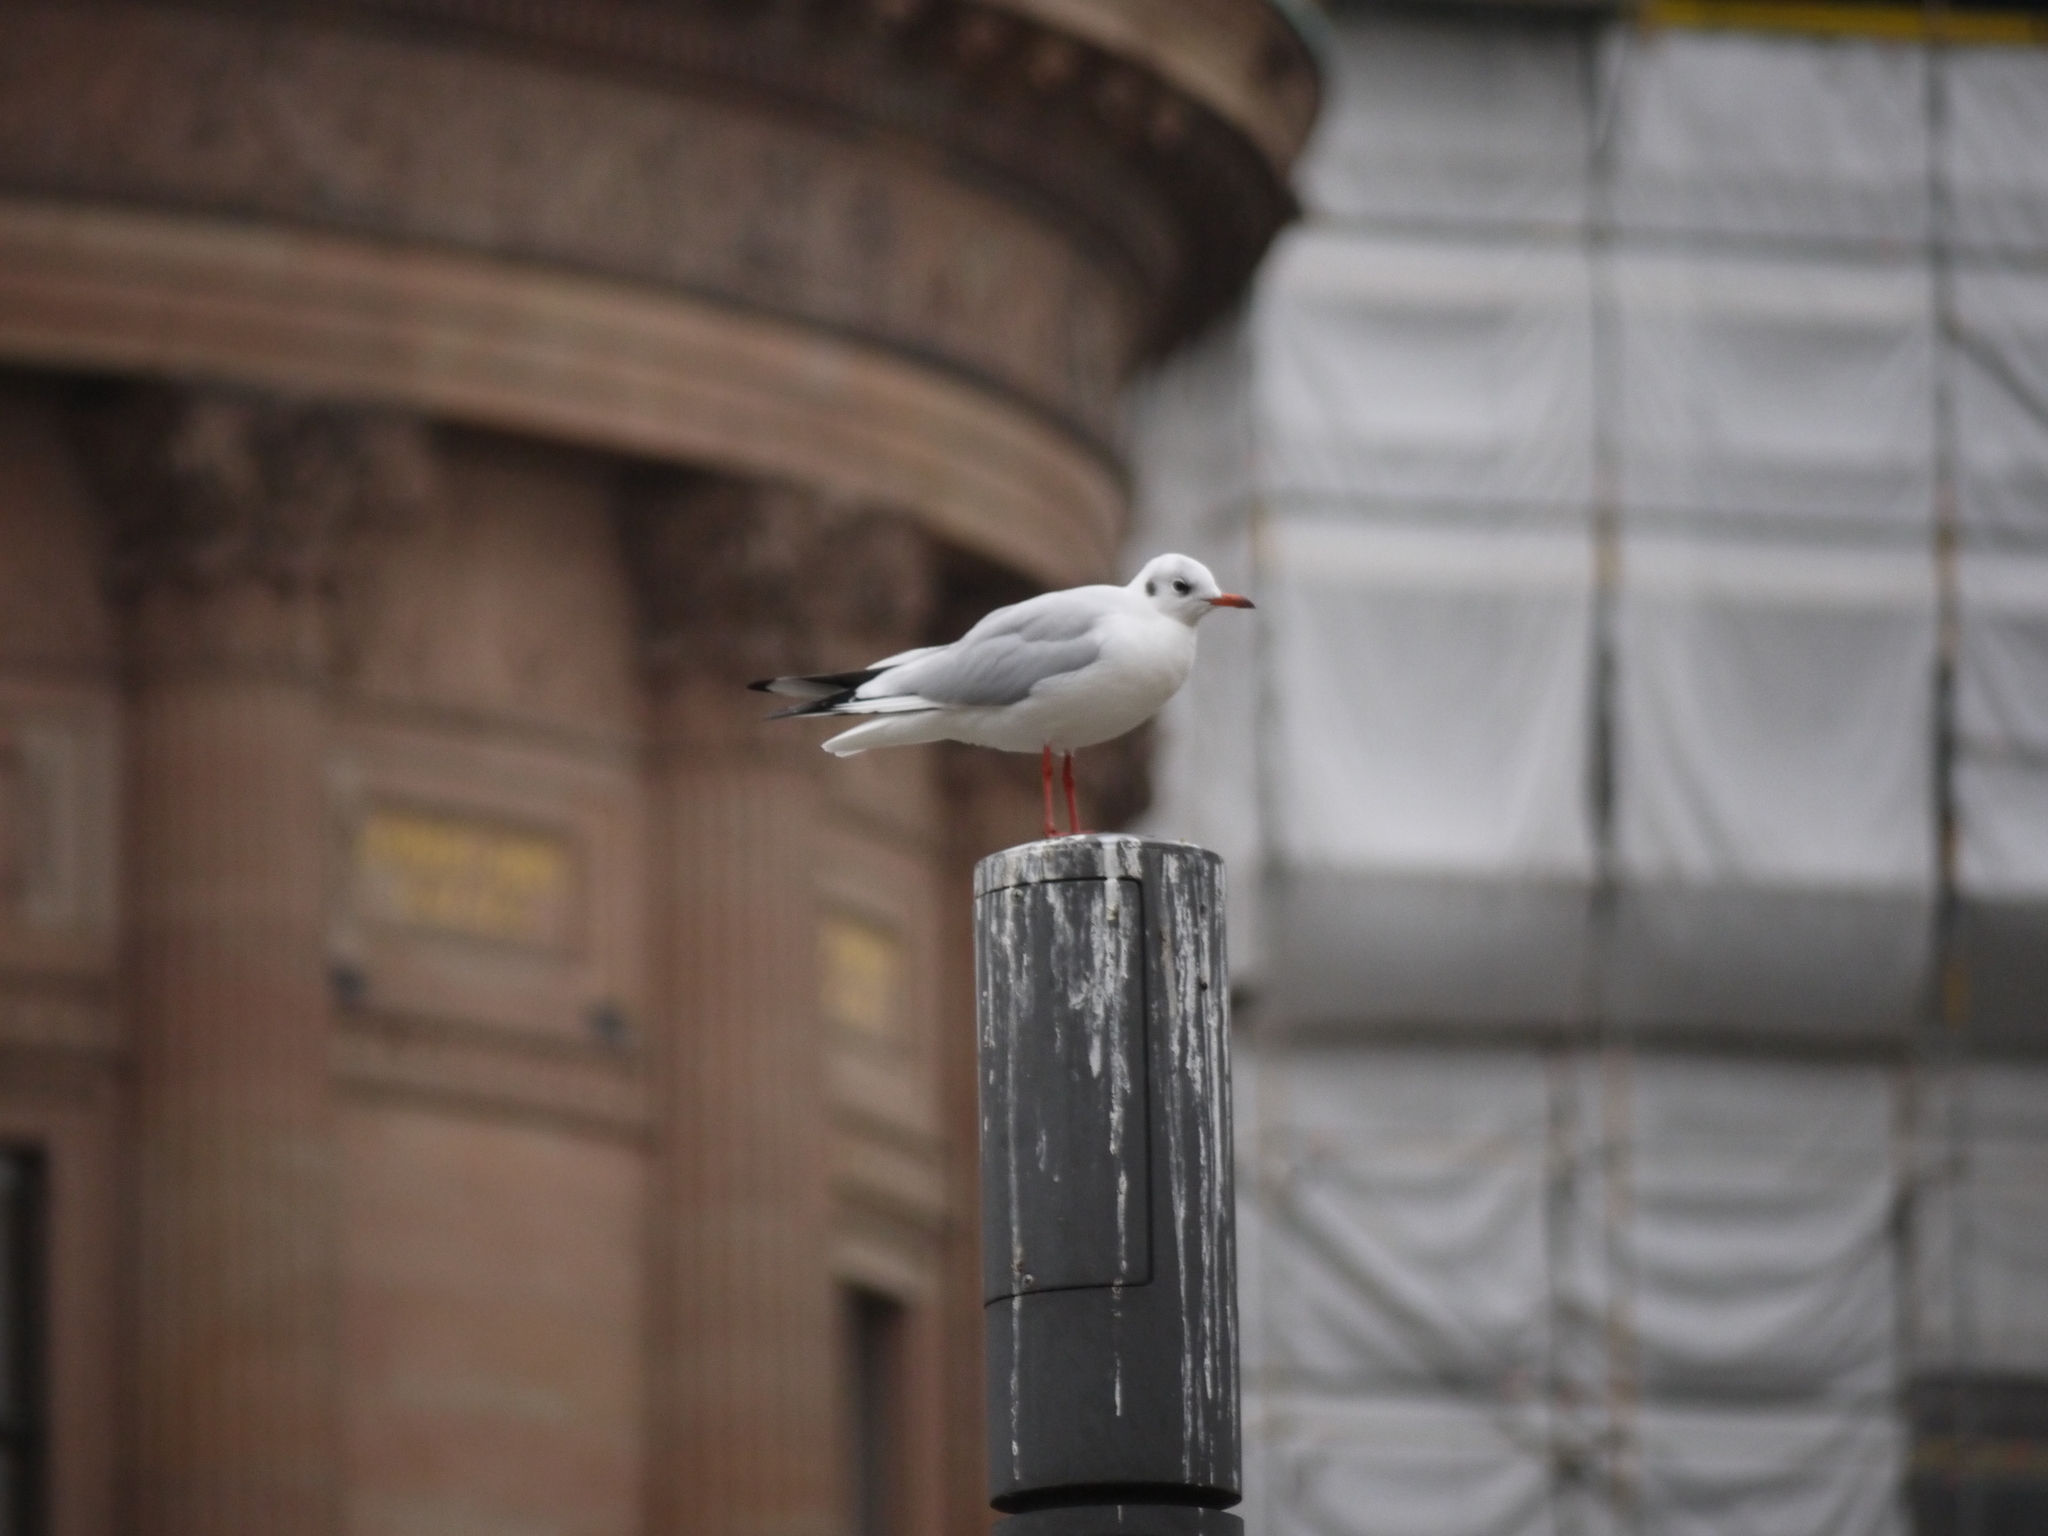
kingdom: Animalia
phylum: Chordata
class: Aves
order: Charadriiformes
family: Laridae
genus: Chroicocephalus
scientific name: Chroicocephalus ridibundus
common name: Black-headed gull
